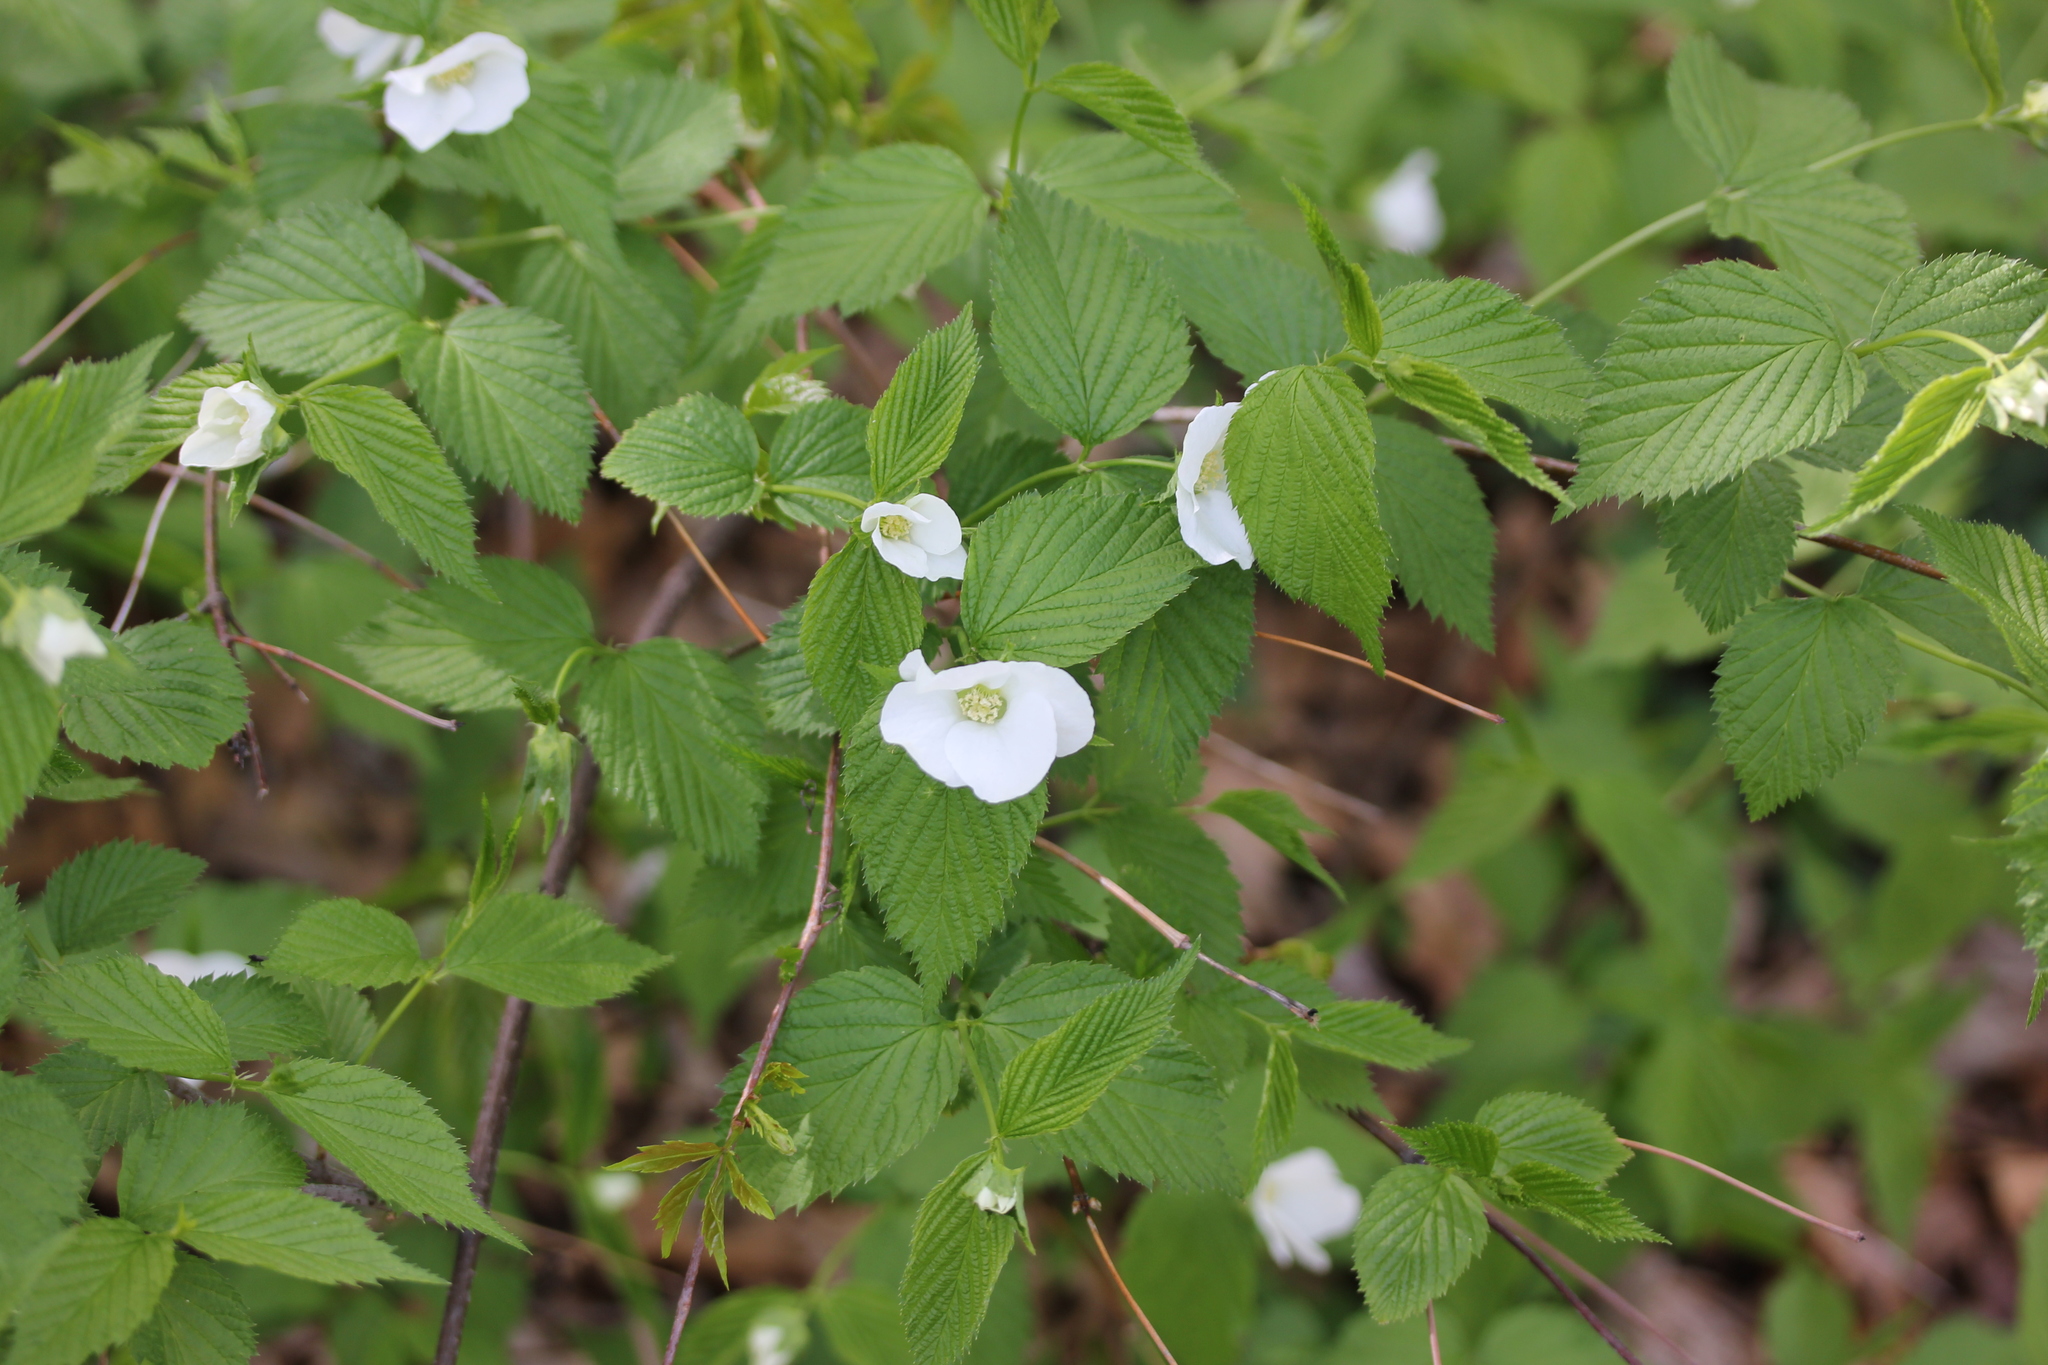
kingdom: Plantae
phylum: Tracheophyta
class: Magnoliopsida
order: Rosales
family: Rosaceae
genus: Rhodotypos
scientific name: Rhodotypos scandens
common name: Jetbead
